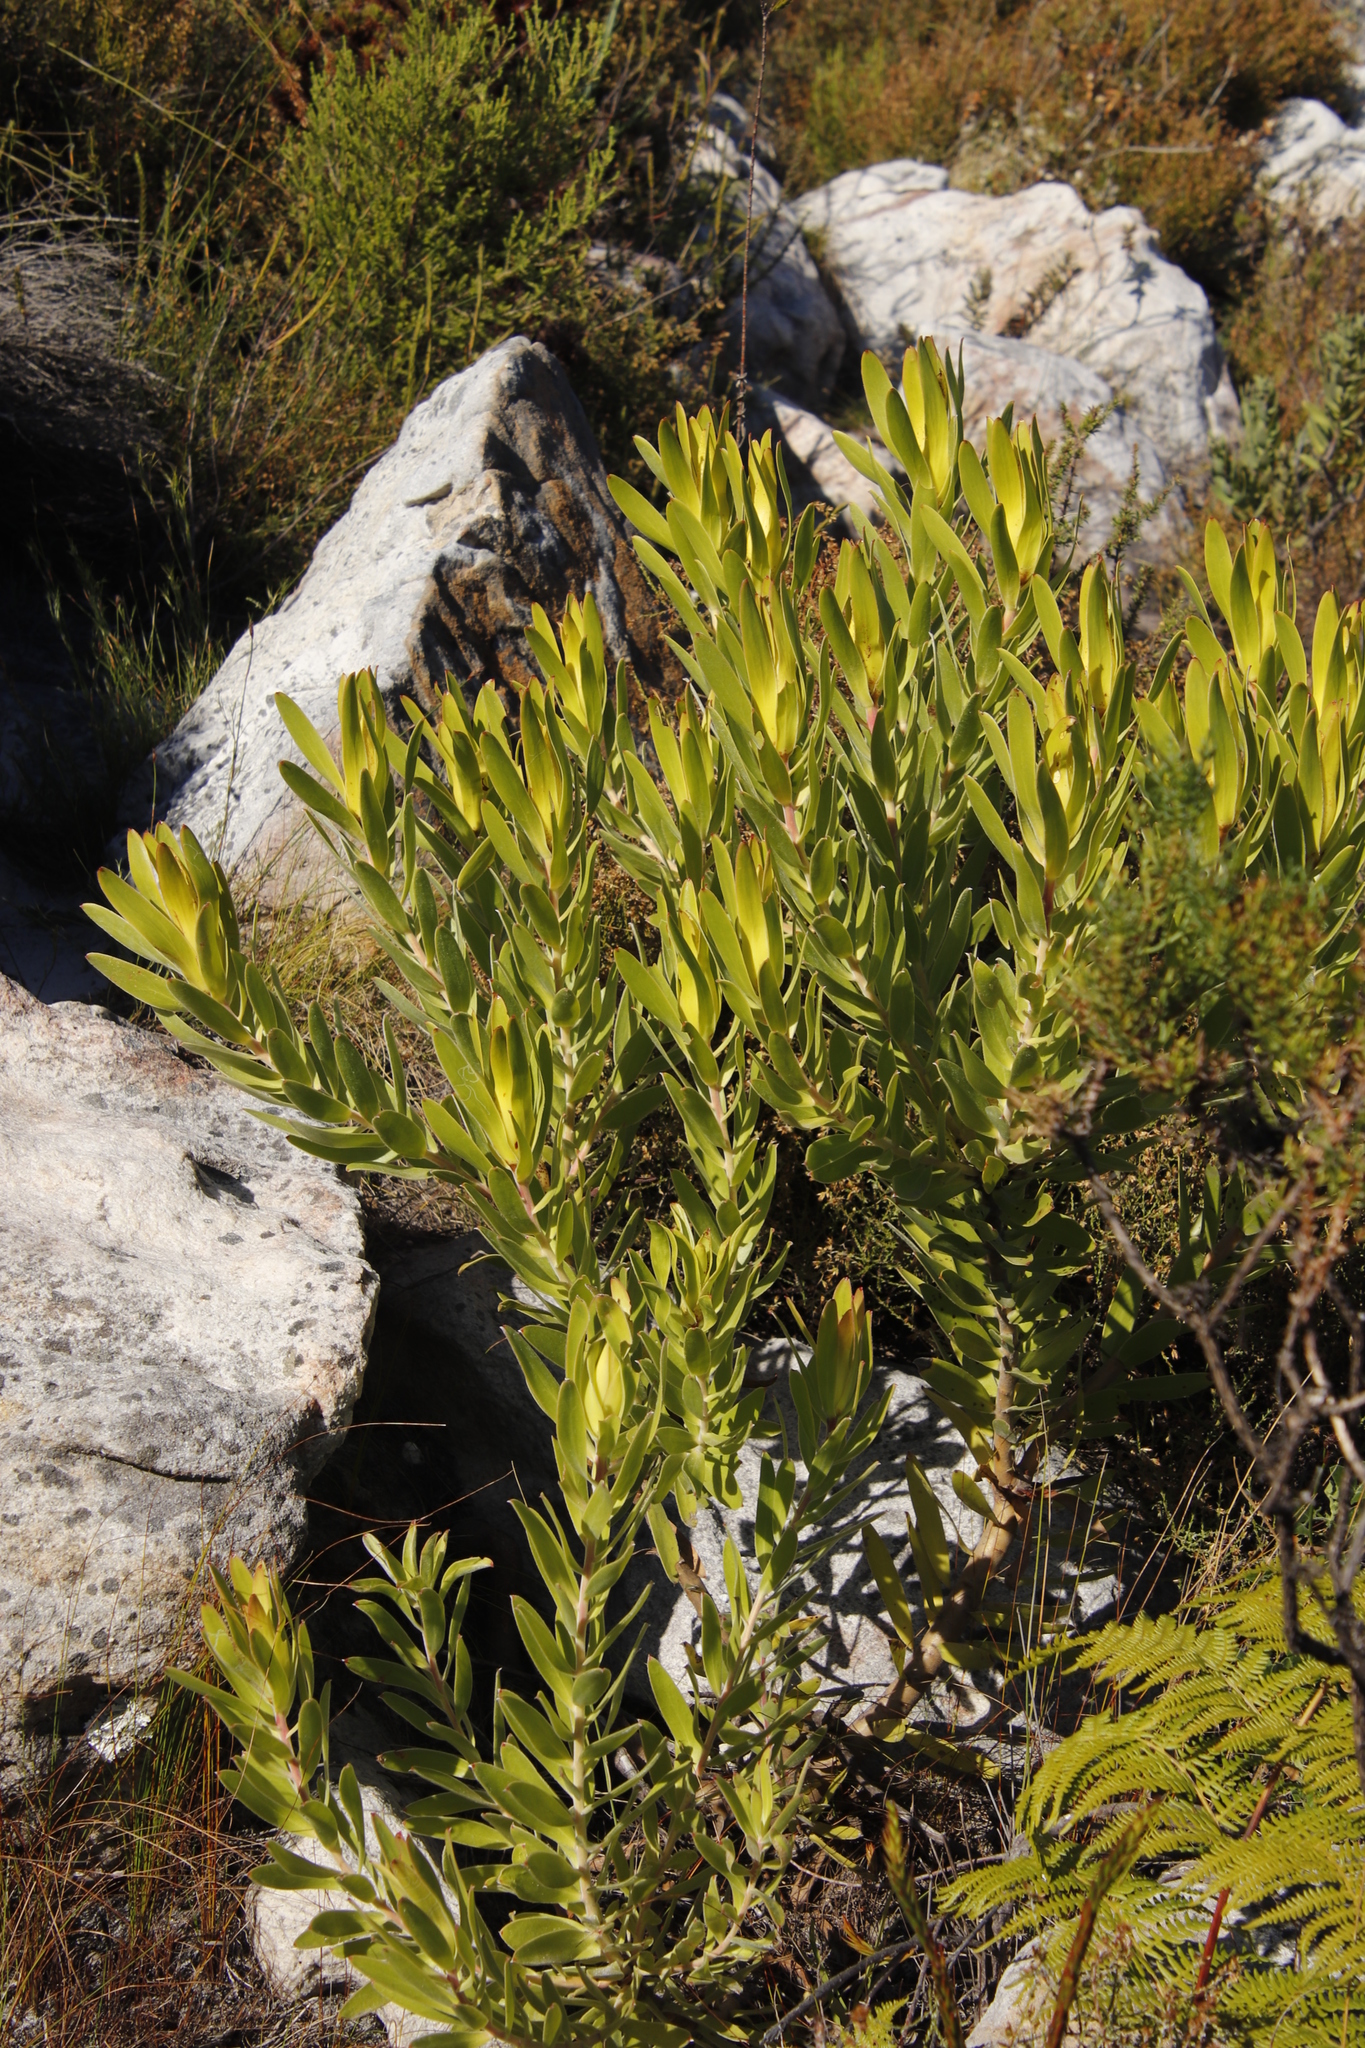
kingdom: Plantae
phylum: Tracheophyta
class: Magnoliopsida
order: Proteales
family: Proteaceae
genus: Leucadendron
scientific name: Leucadendron laureolum
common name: Golden sunshinebush
